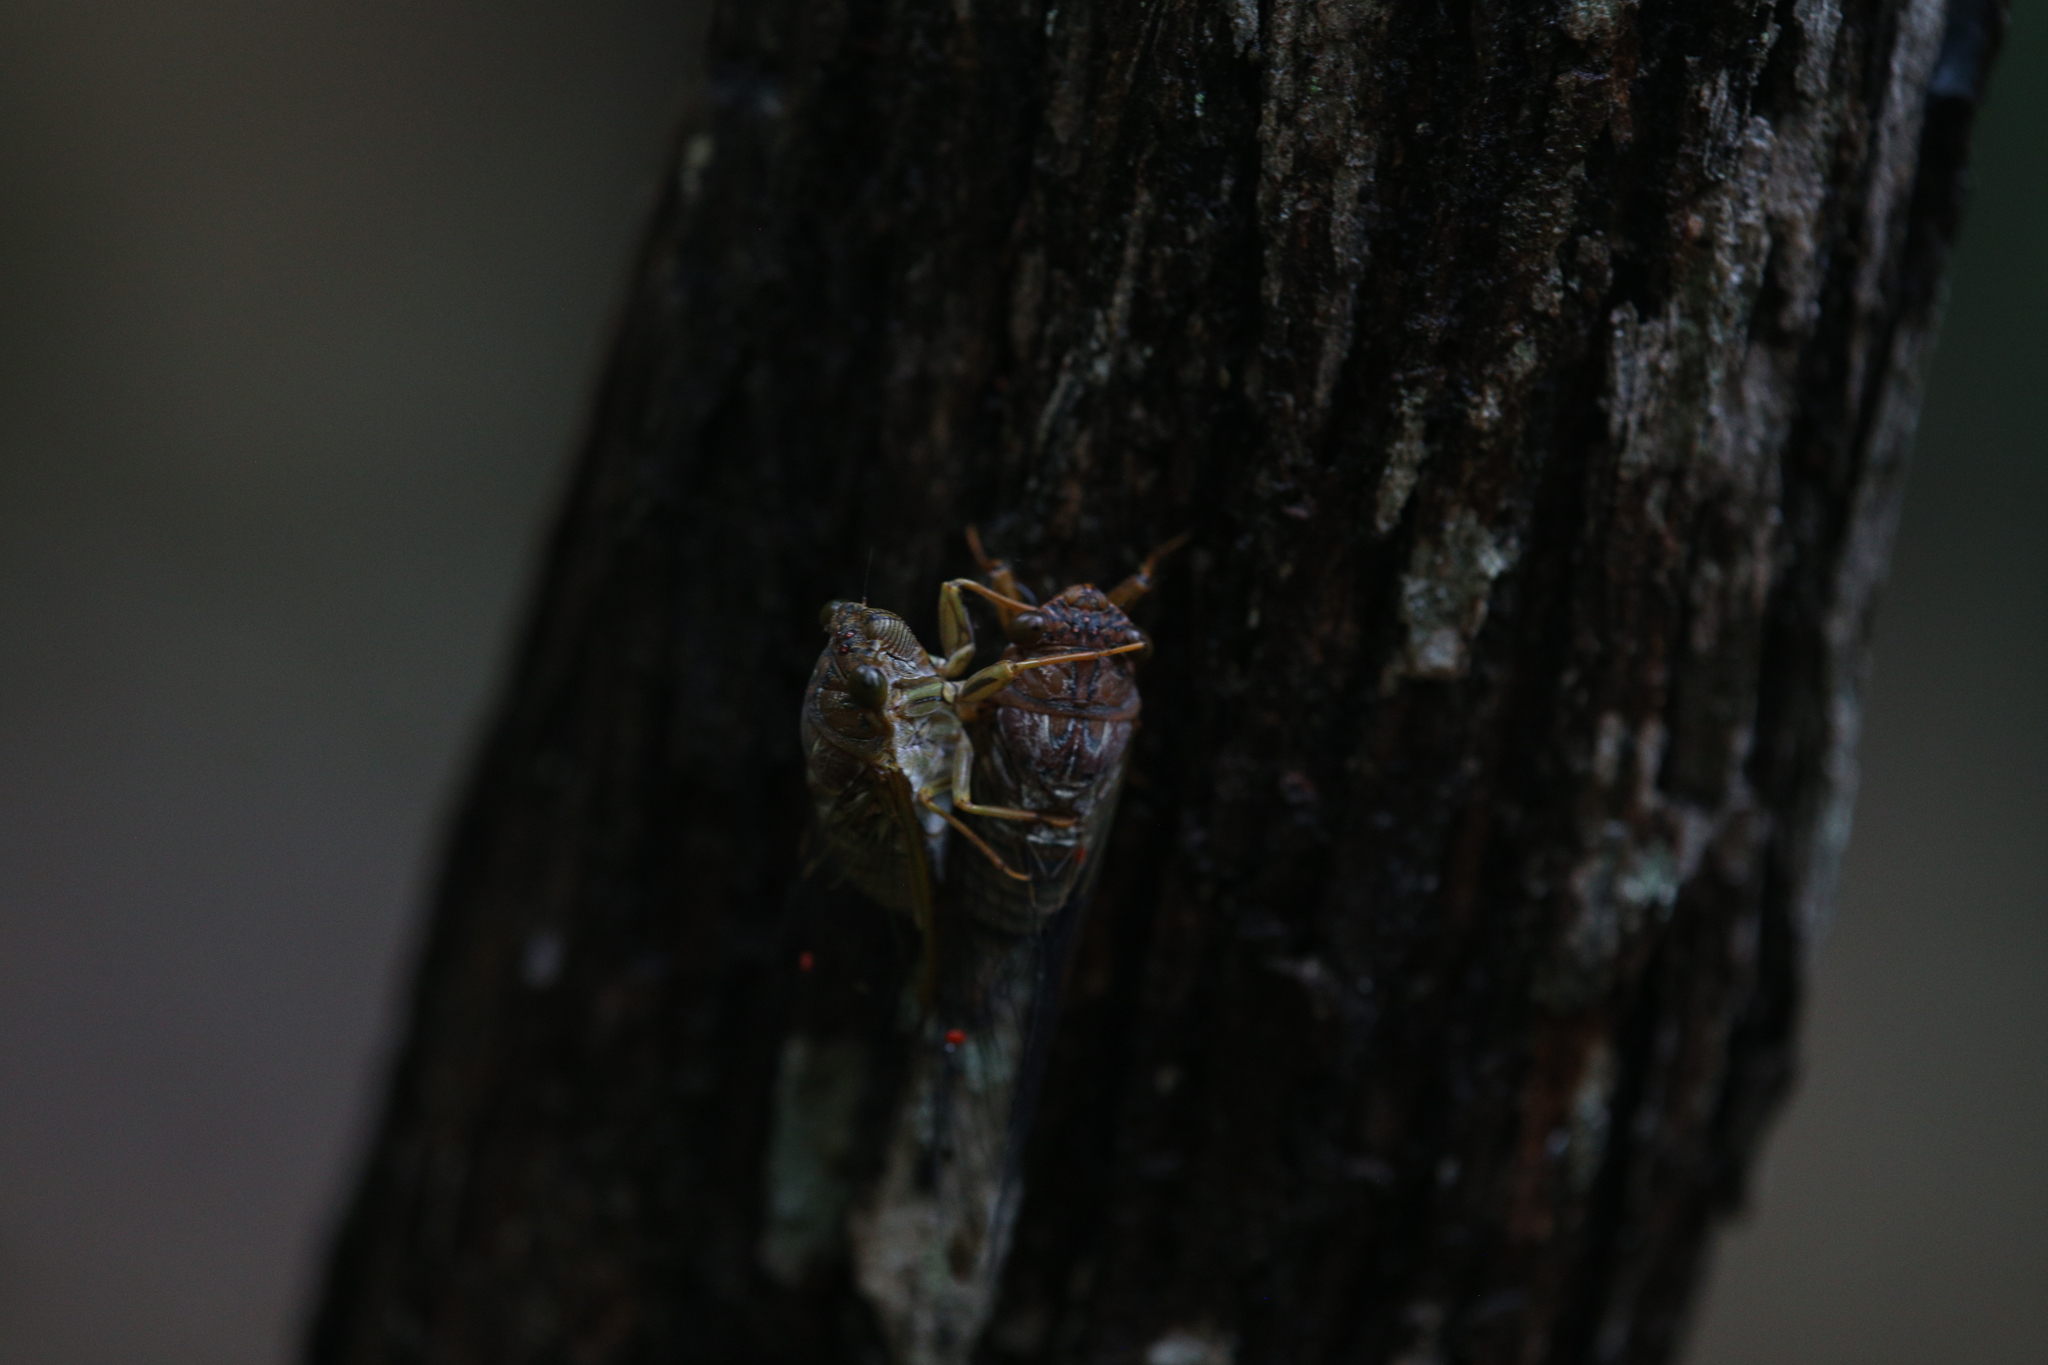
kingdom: Animalia
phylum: Arthropoda
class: Insecta
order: Hemiptera
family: Cicadidae
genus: Tamasa
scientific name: Tamasa doddi
